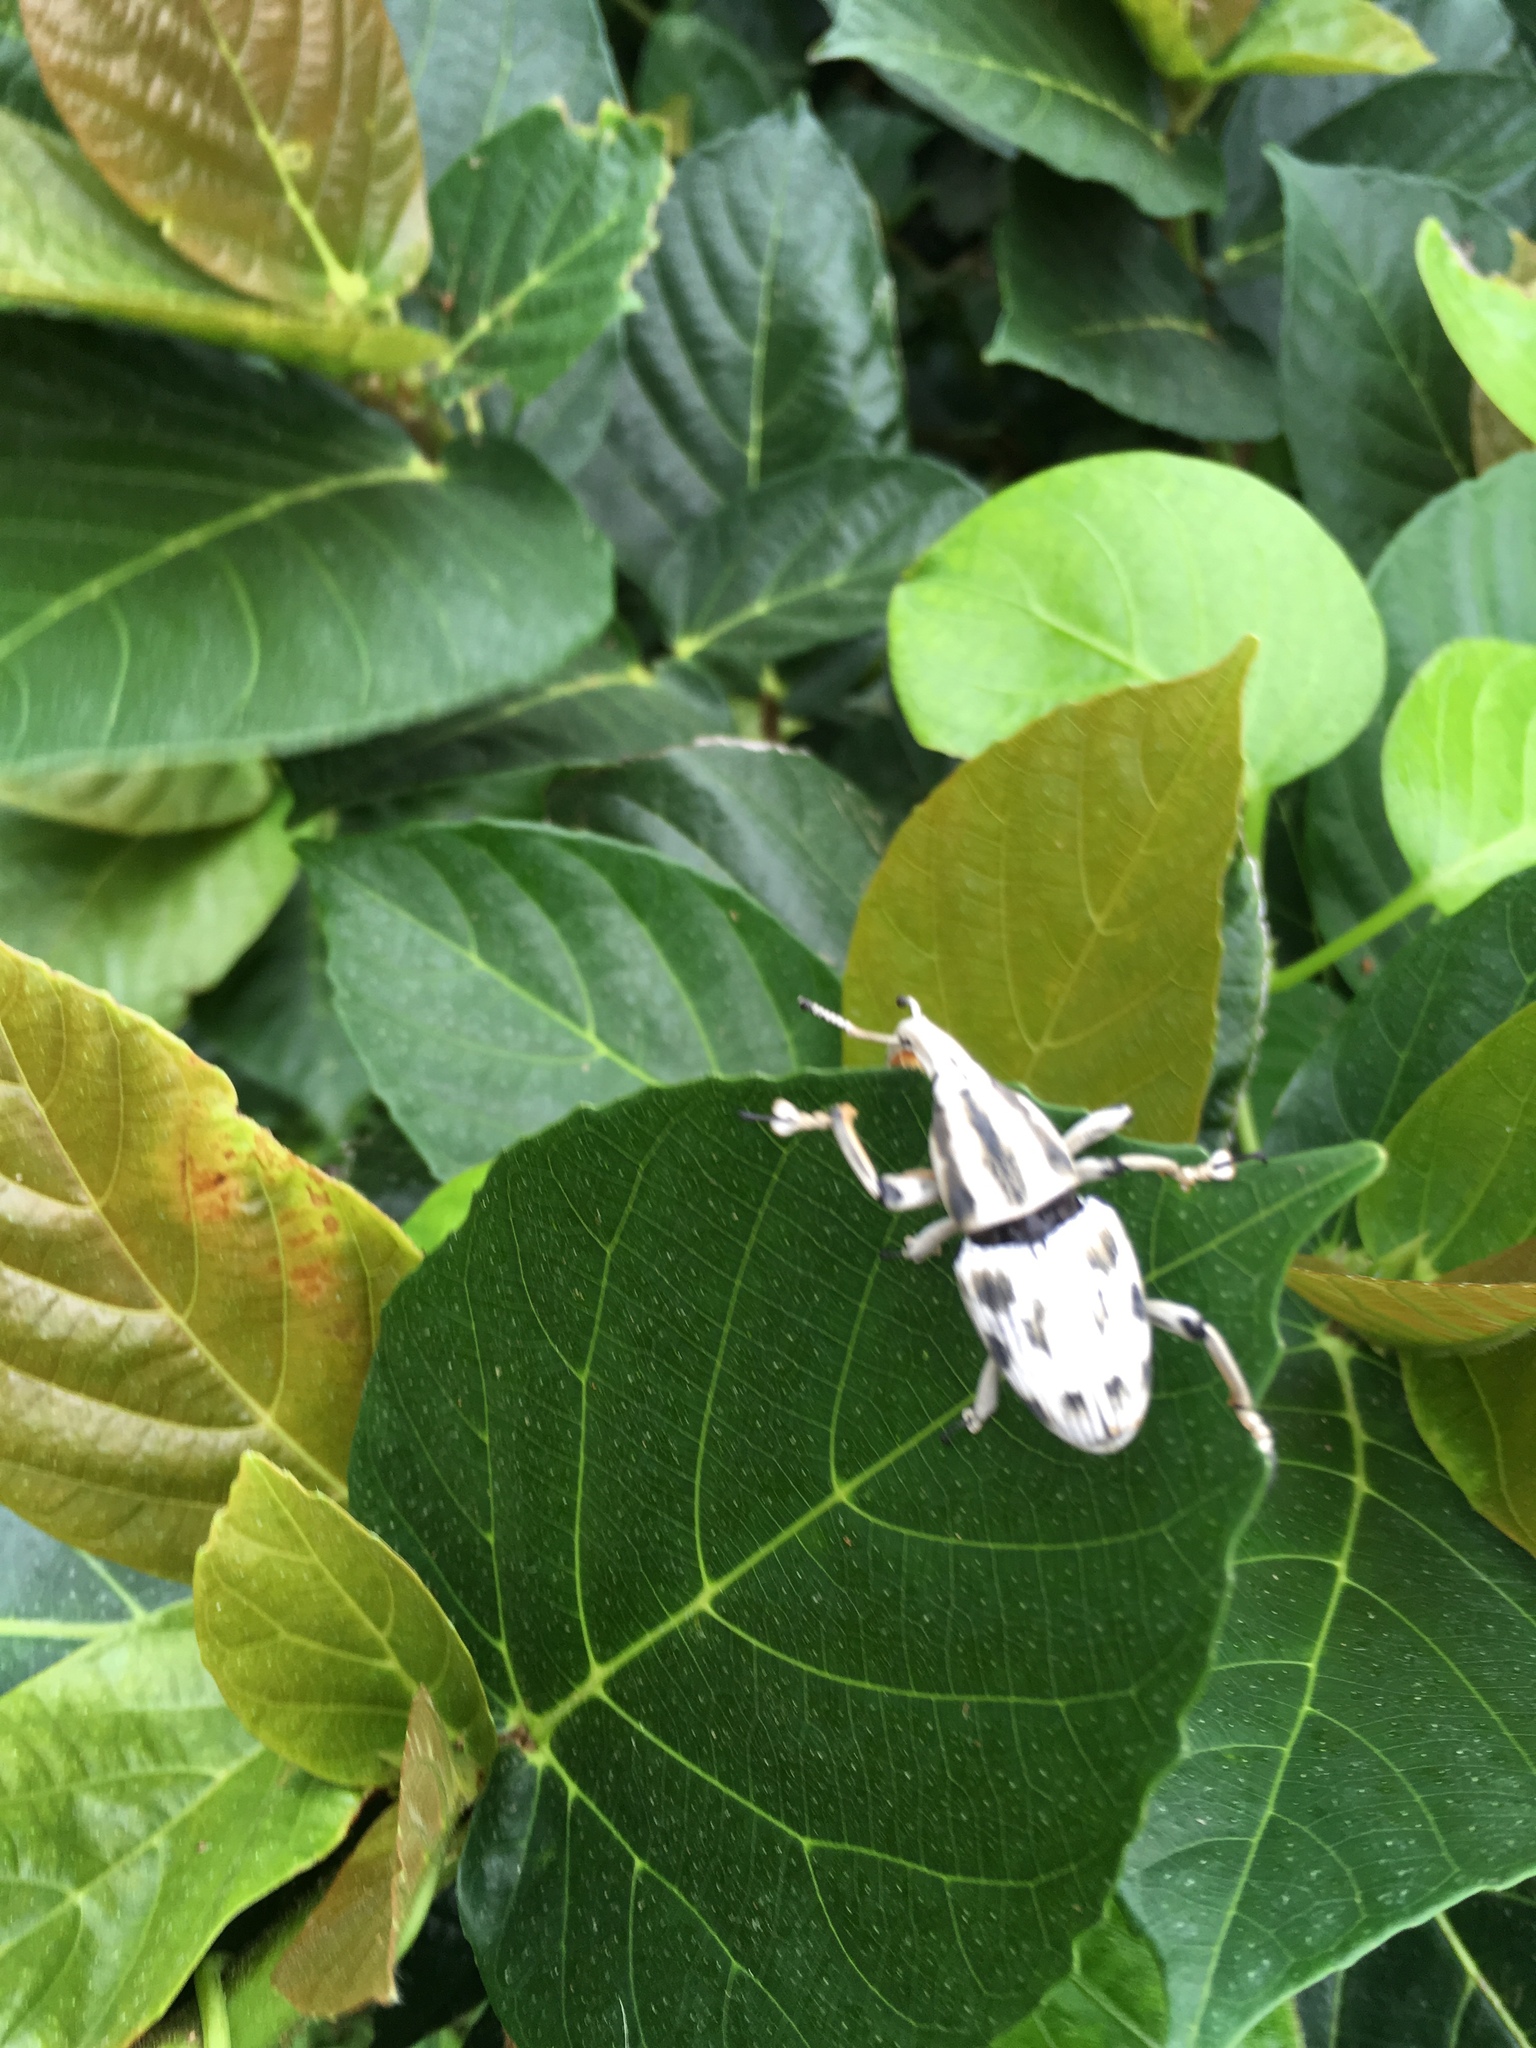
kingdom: Animalia
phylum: Arthropoda
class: Insecta
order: Coleoptera
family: Dryophthoridae
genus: Poteriophorus
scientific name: Poteriophorus uhlemanni
